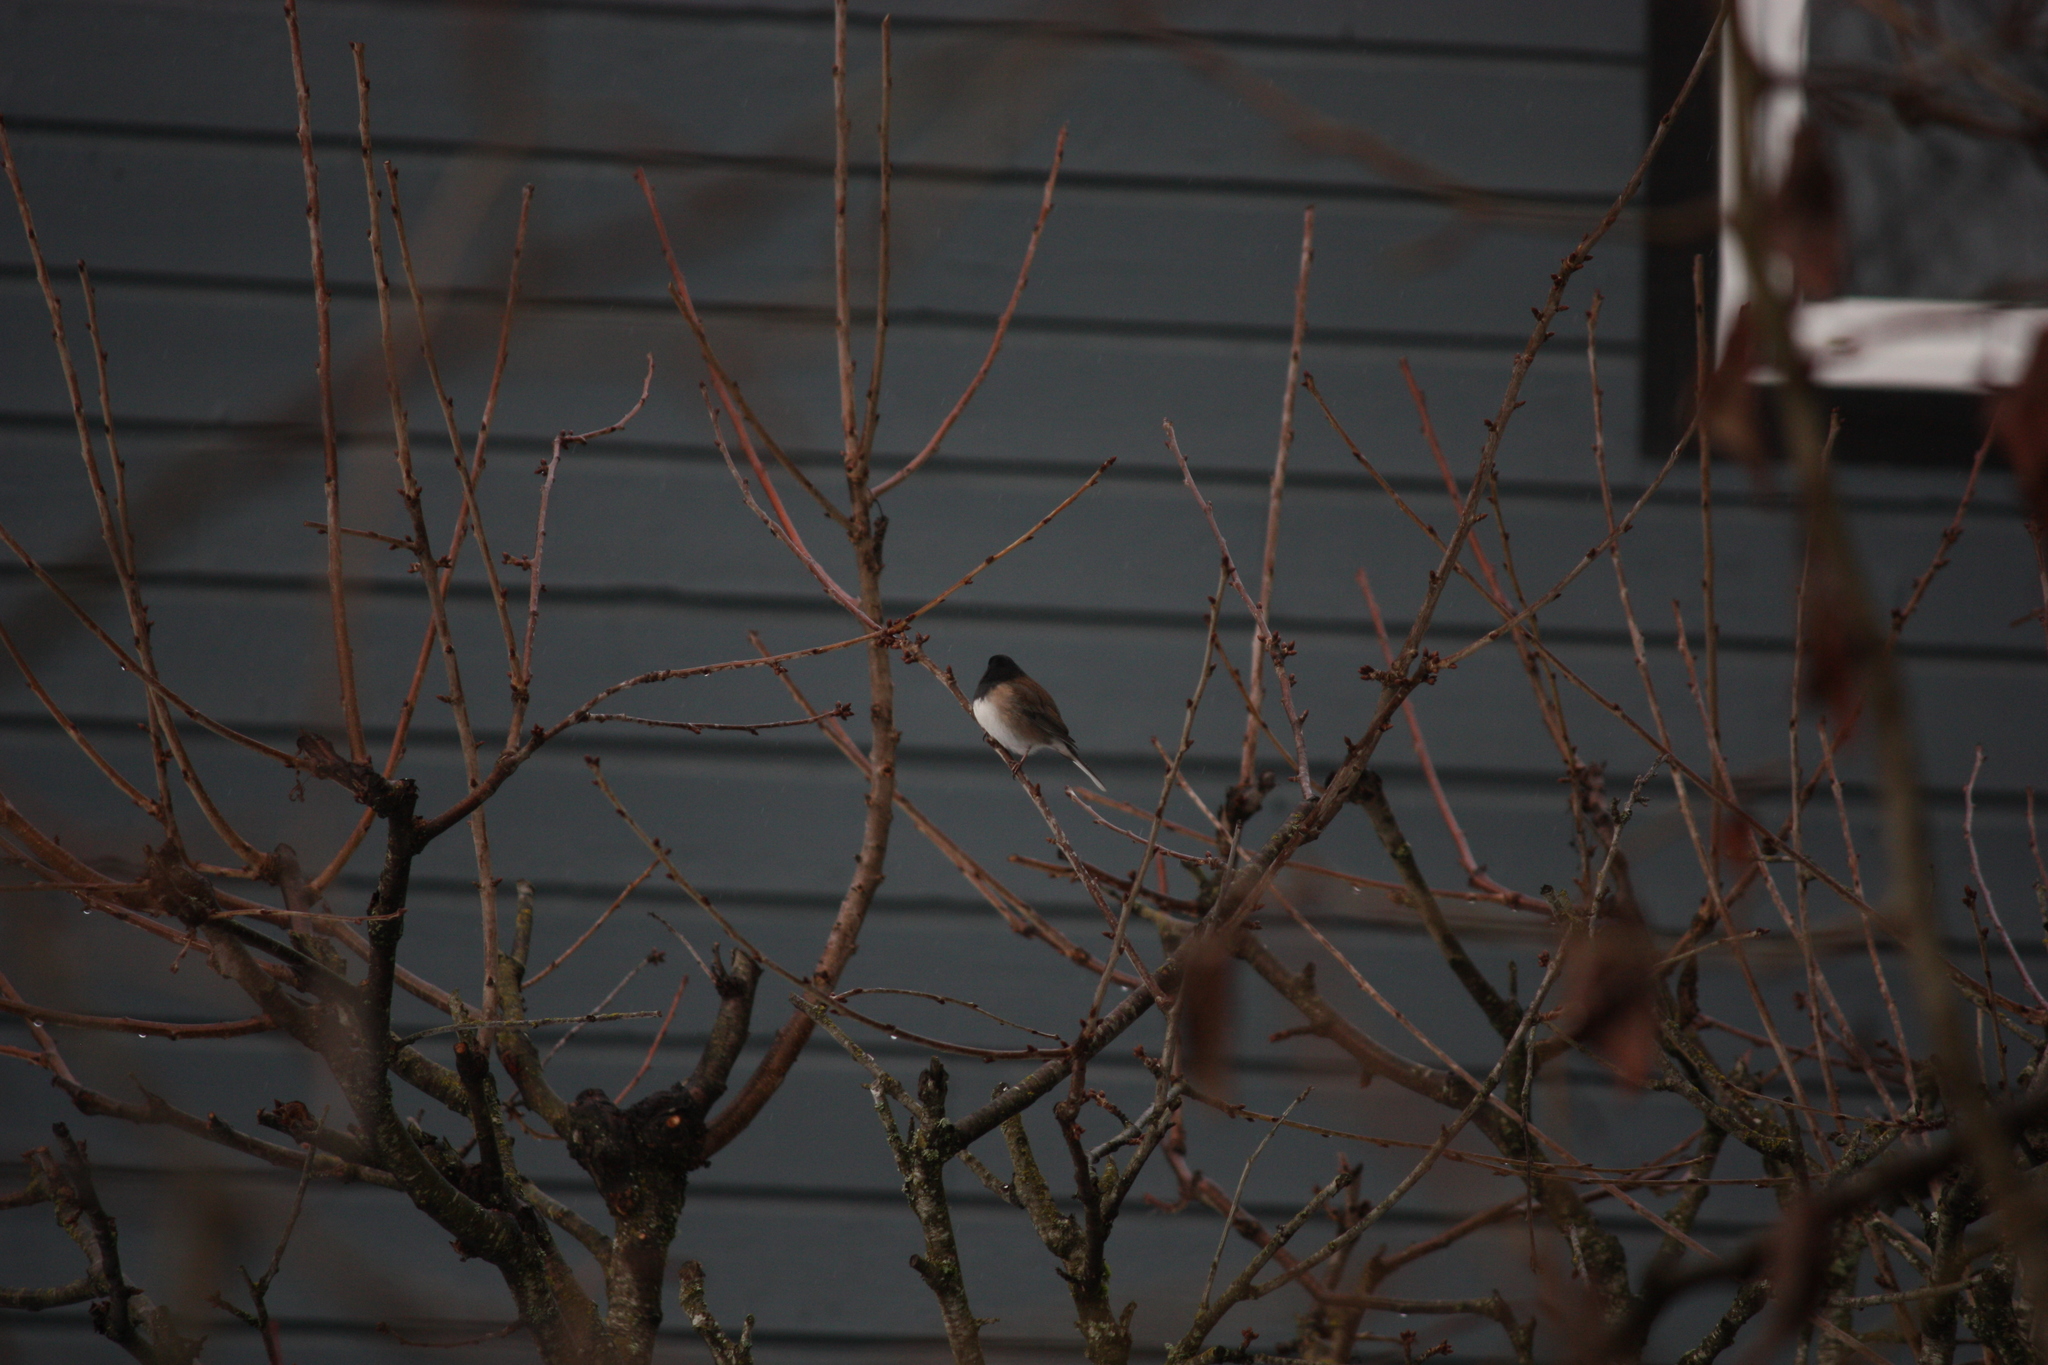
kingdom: Animalia
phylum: Chordata
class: Aves
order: Passeriformes
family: Passerellidae
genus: Junco
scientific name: Junco hyemalis
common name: Dark-eyed junco
